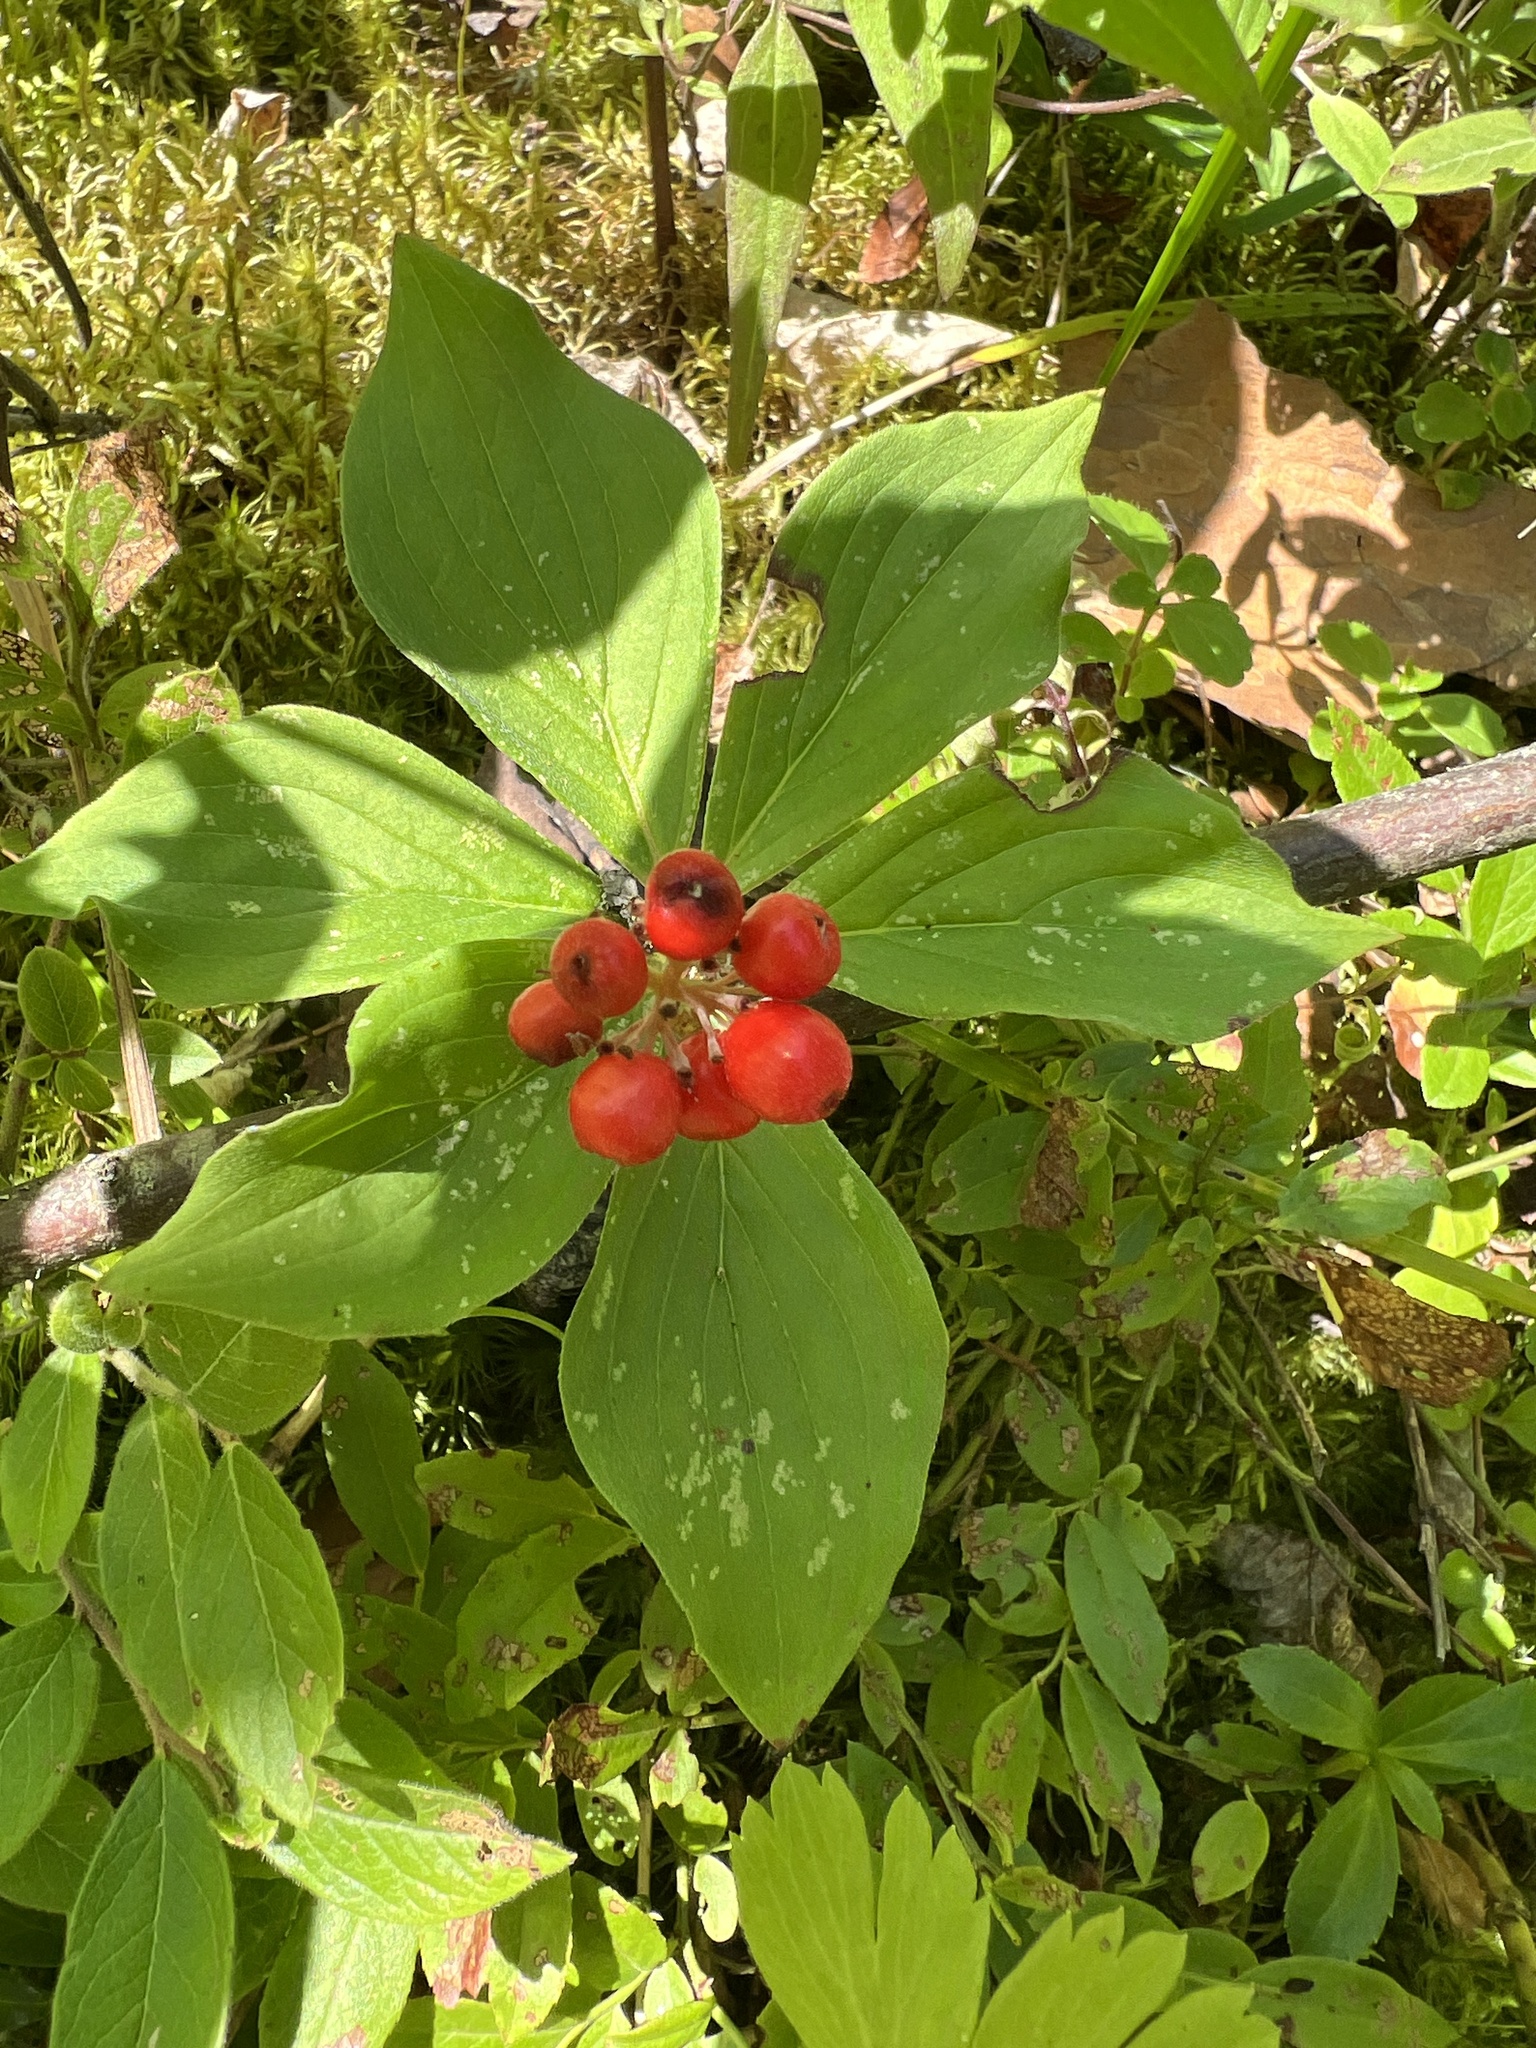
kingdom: Plantae
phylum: Tracheophyta
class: Magnoliopsida
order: Cornales
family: Cornaceae
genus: Cornus
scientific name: Cornus canadensis
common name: Creeping dogwood
